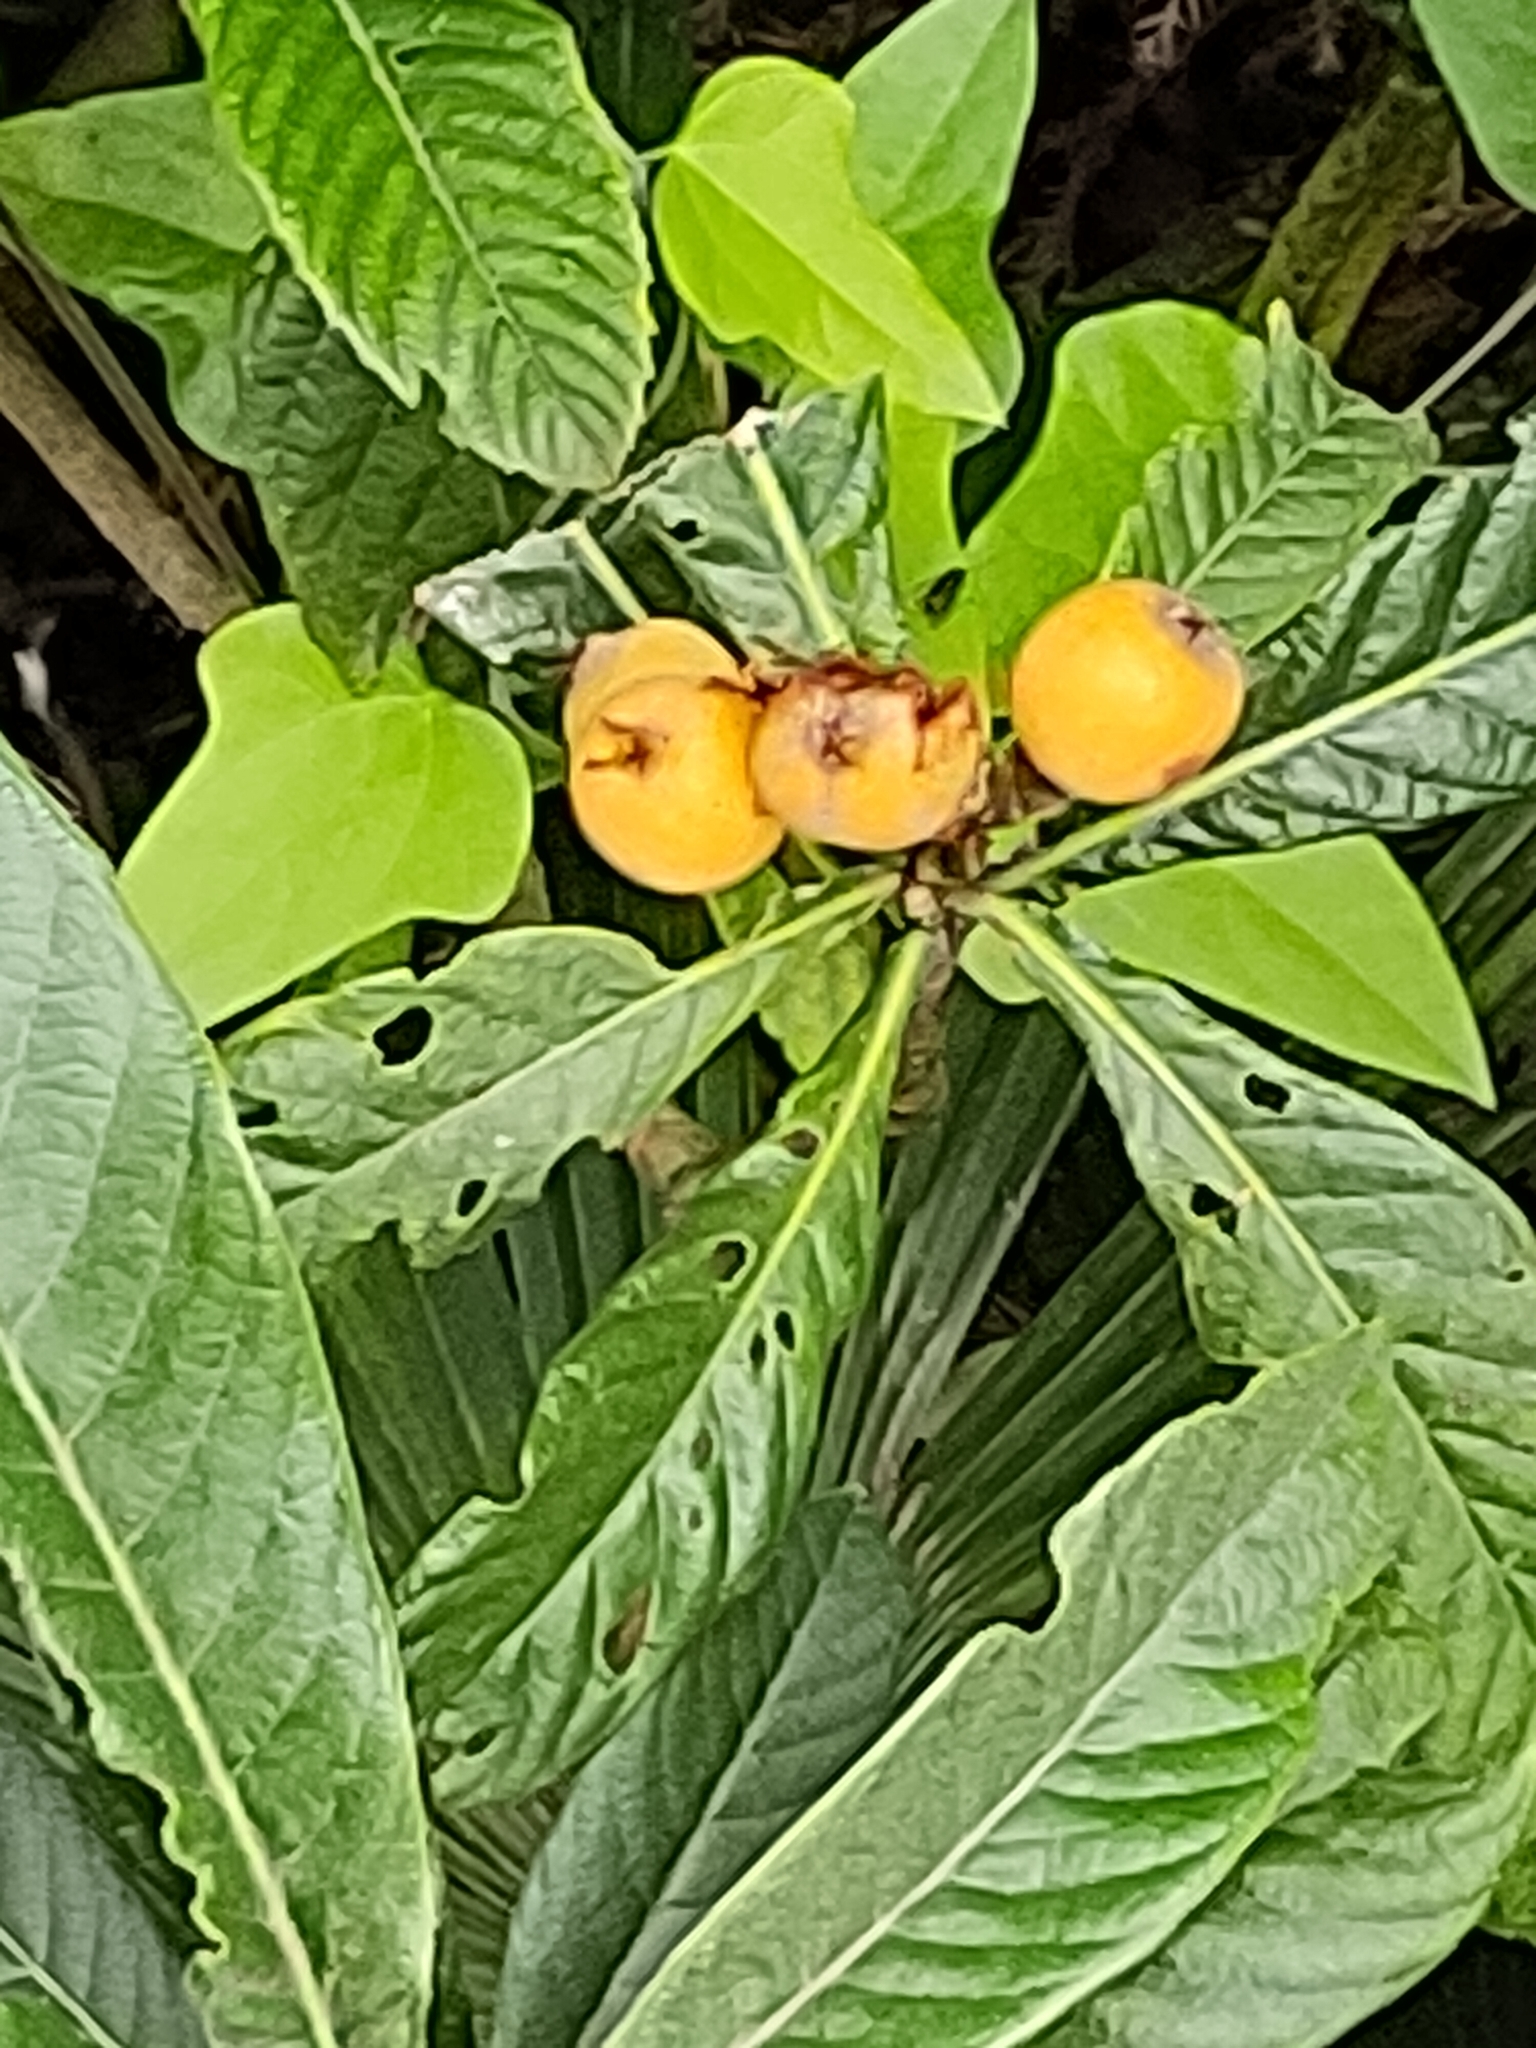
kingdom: Plantae
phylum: Tracheophyta
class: Magnoliopsida
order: Rosales
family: Rosaceae
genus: Rhaphiolepis
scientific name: Rhaphiolepis bibas
